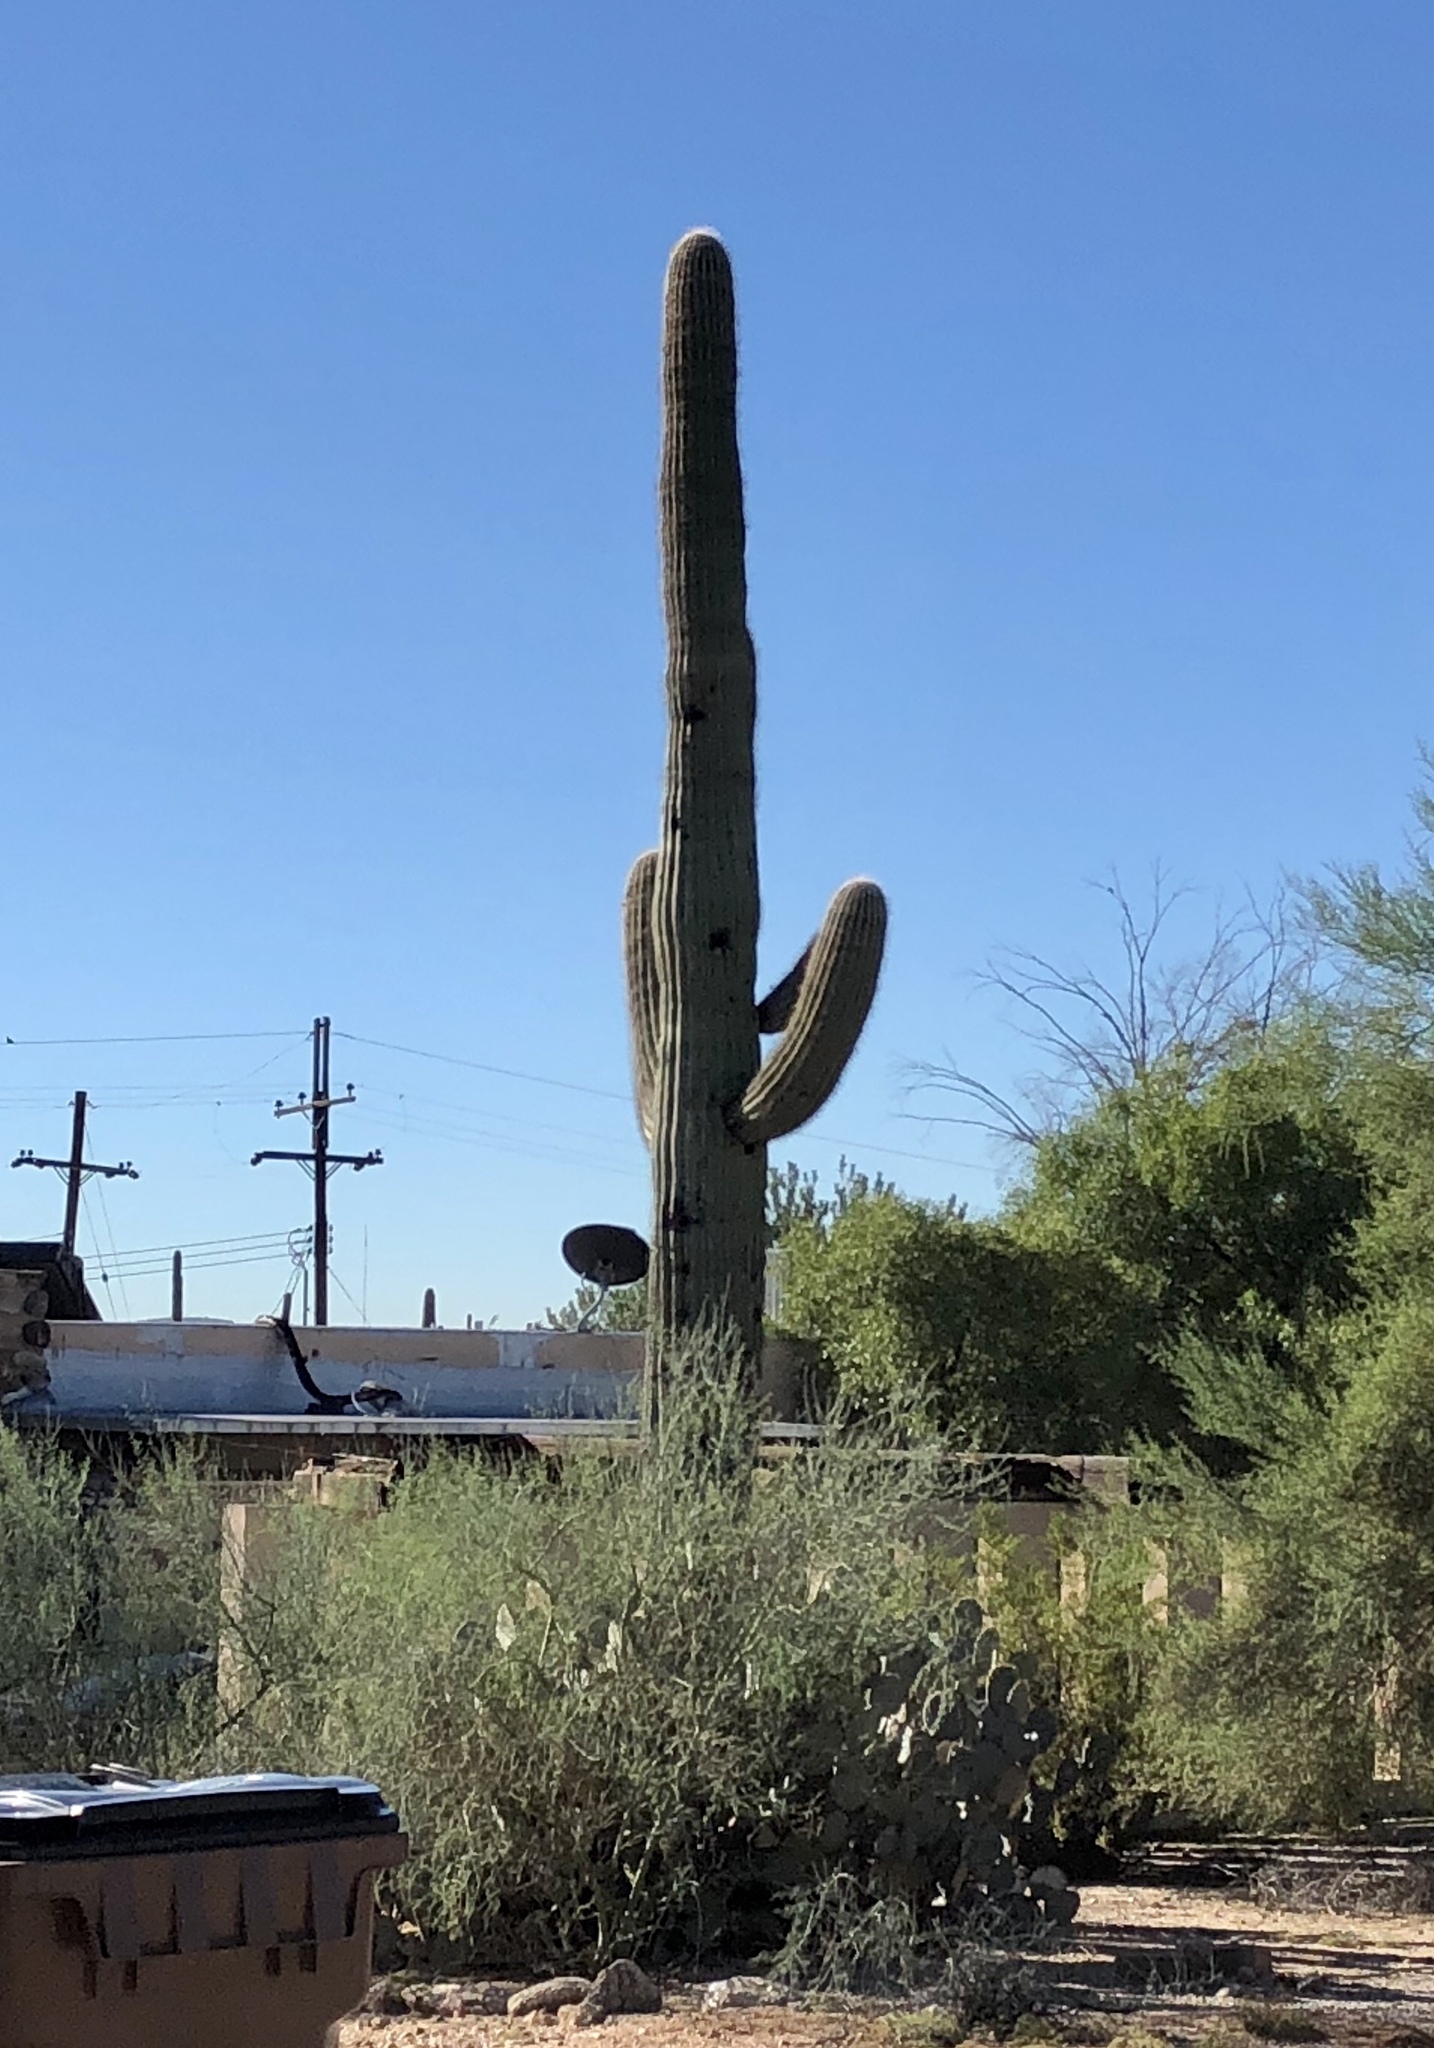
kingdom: Plantae
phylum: Tracheophyta
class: Magnoliopsida
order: Caryophyllales
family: Cactaceae
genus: Carnegiea
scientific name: Carnegiea gigantea
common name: Saguaro
